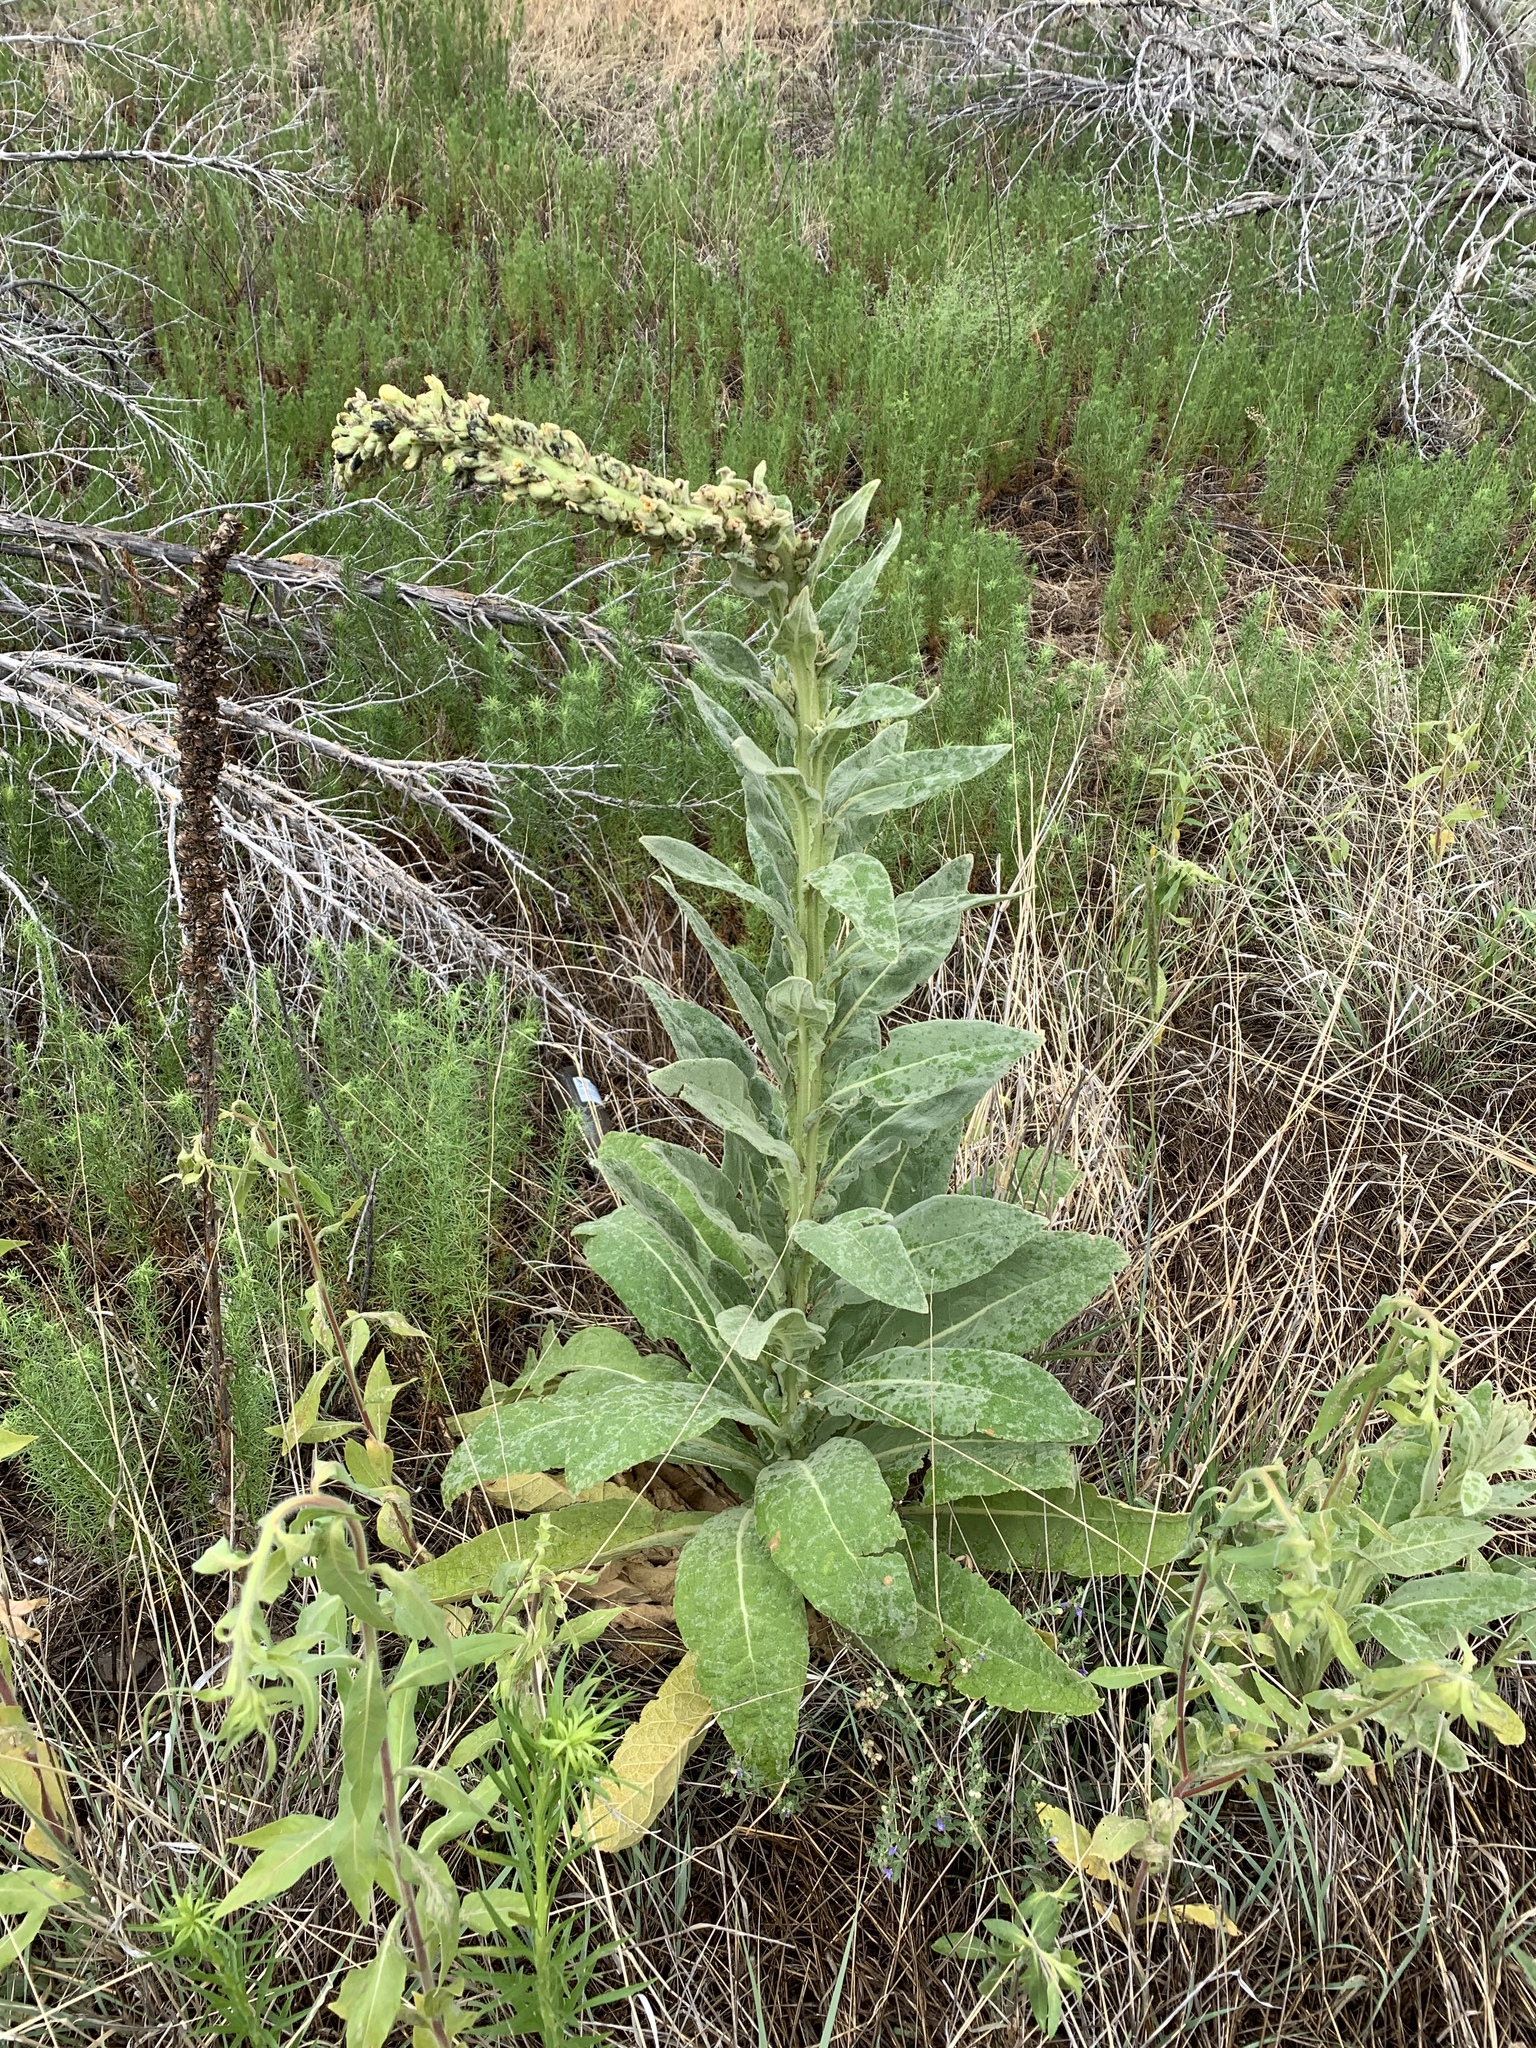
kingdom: Plantae
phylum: Tracheophyta
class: Magnoliopsida
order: Lamiales
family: Scrophulariaceae
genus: Verbascum
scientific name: Verbascum thapsus
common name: Common mullein
